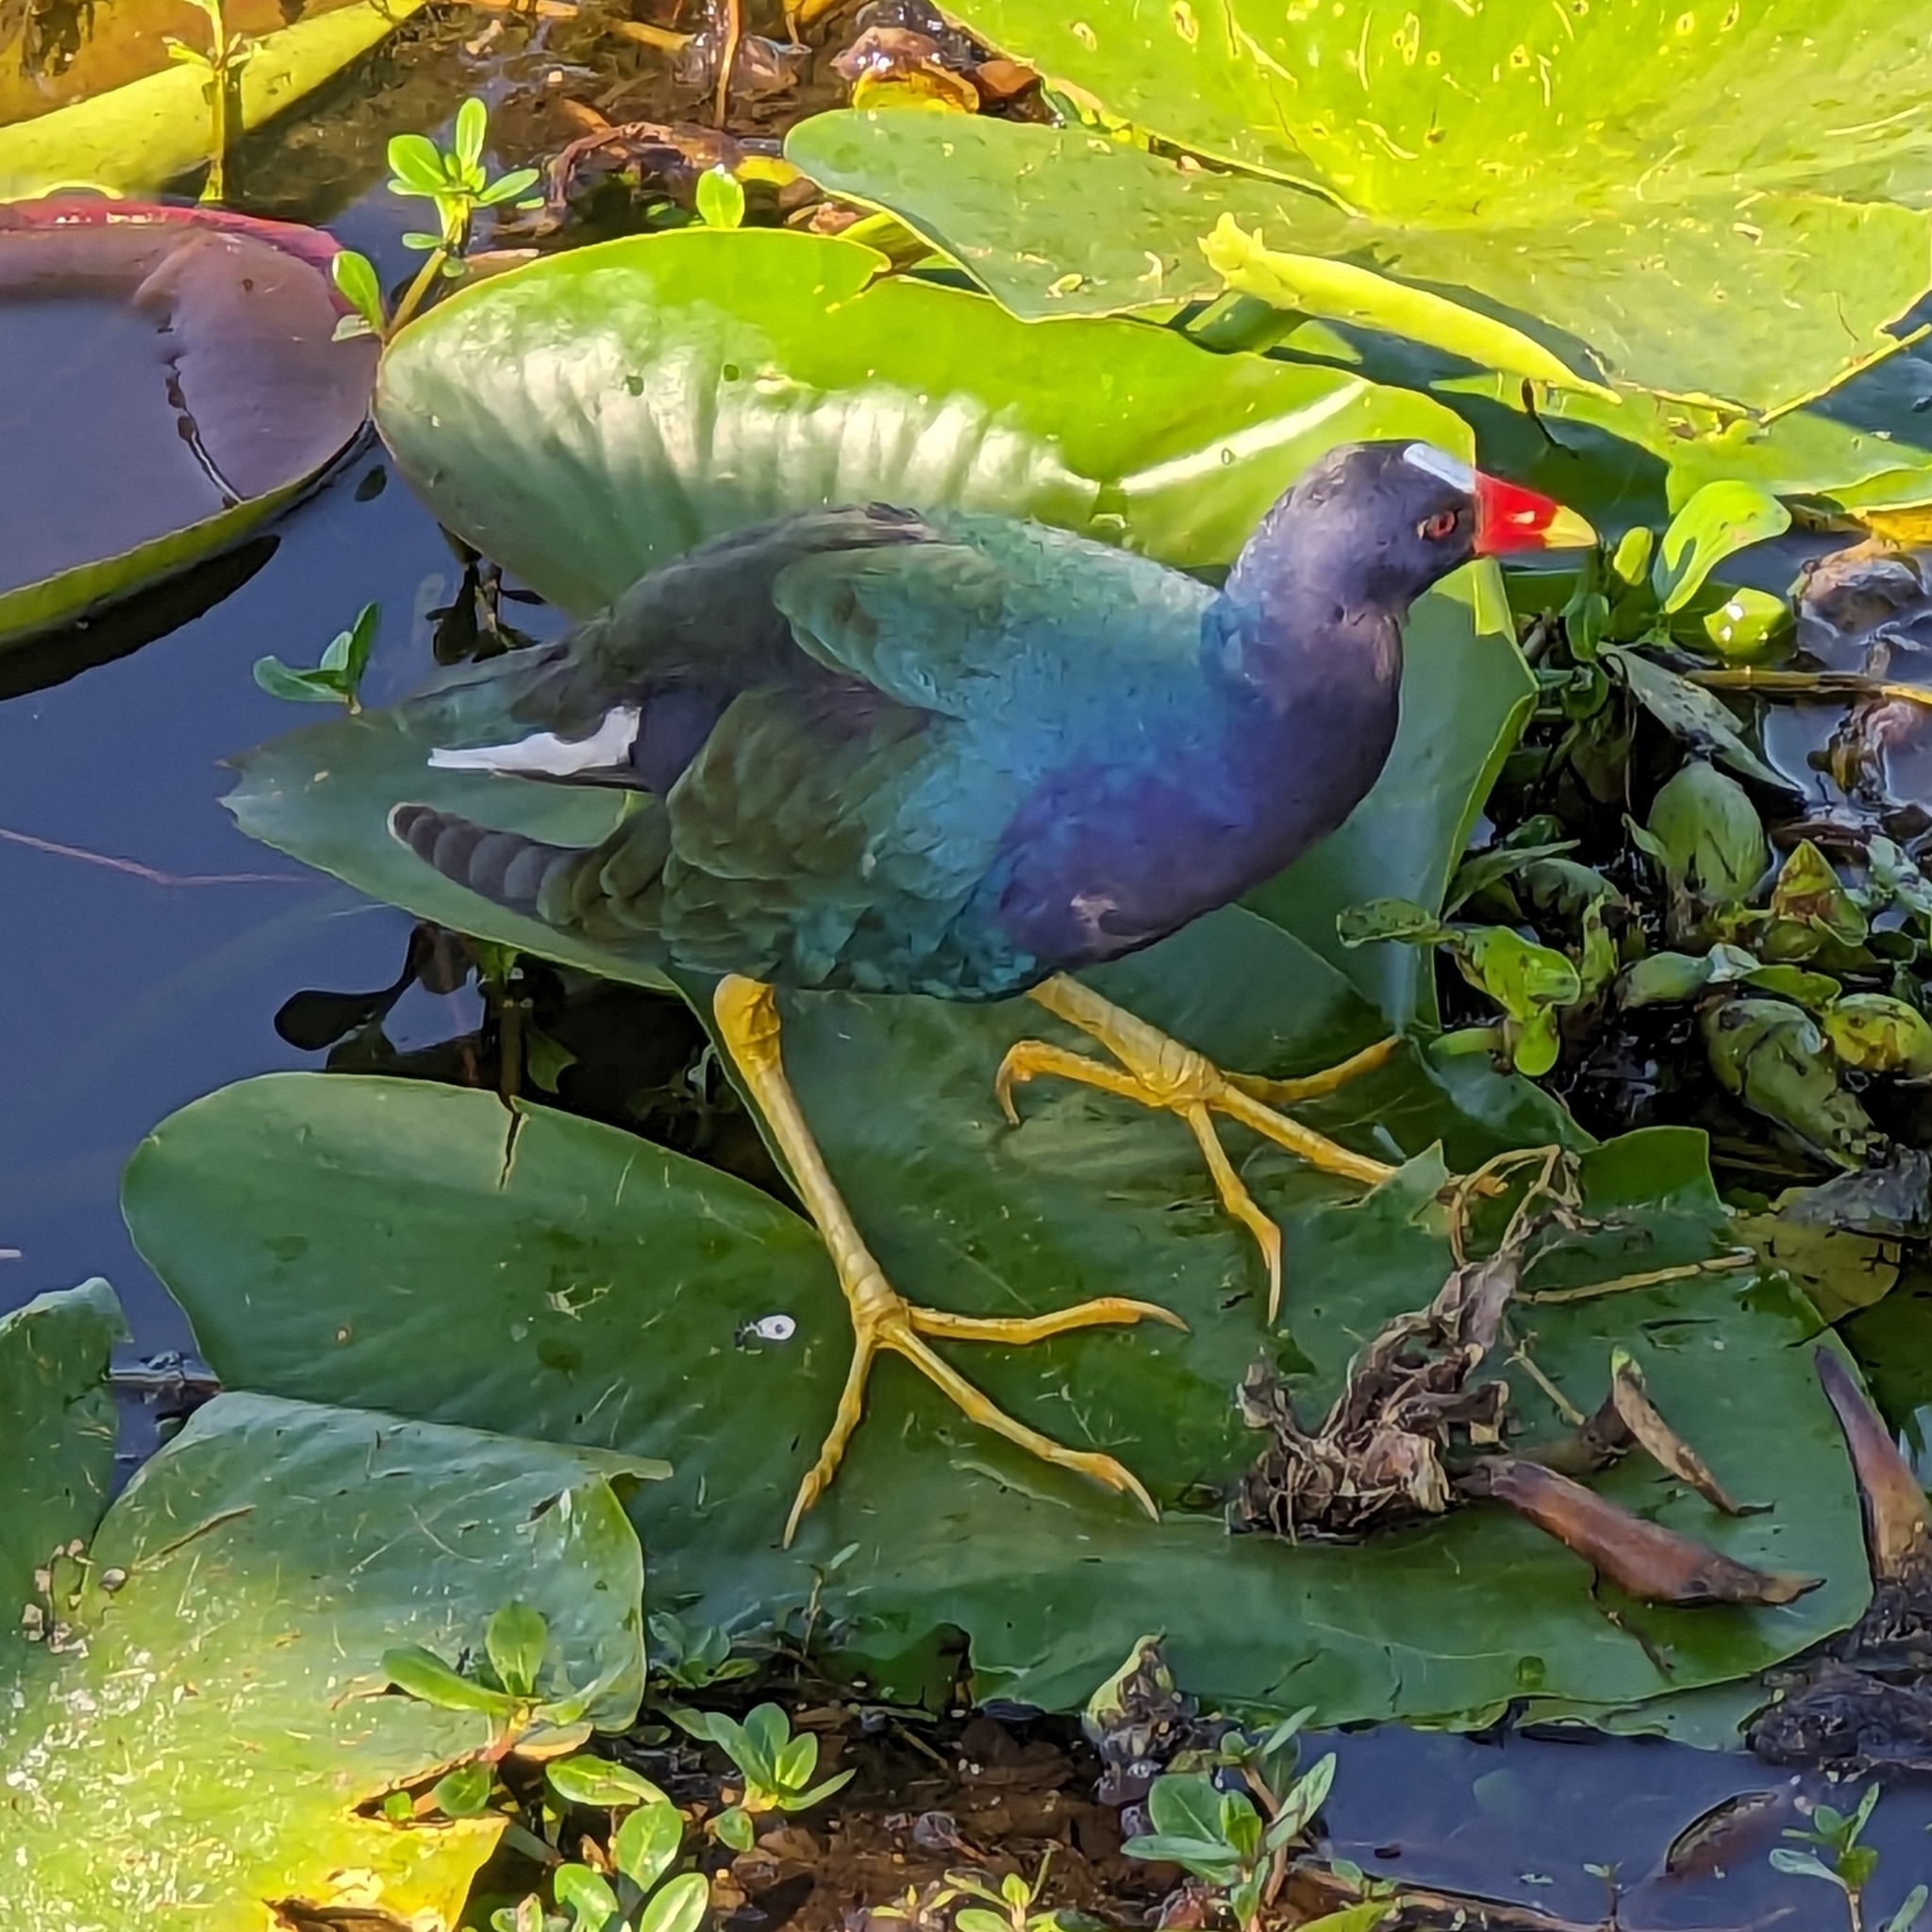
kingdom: Animalia
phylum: Chordata
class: Aves
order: Gruiformes
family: Rallidae
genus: Porphyrio
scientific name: Porphyrio martinica
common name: Purple gallinule
